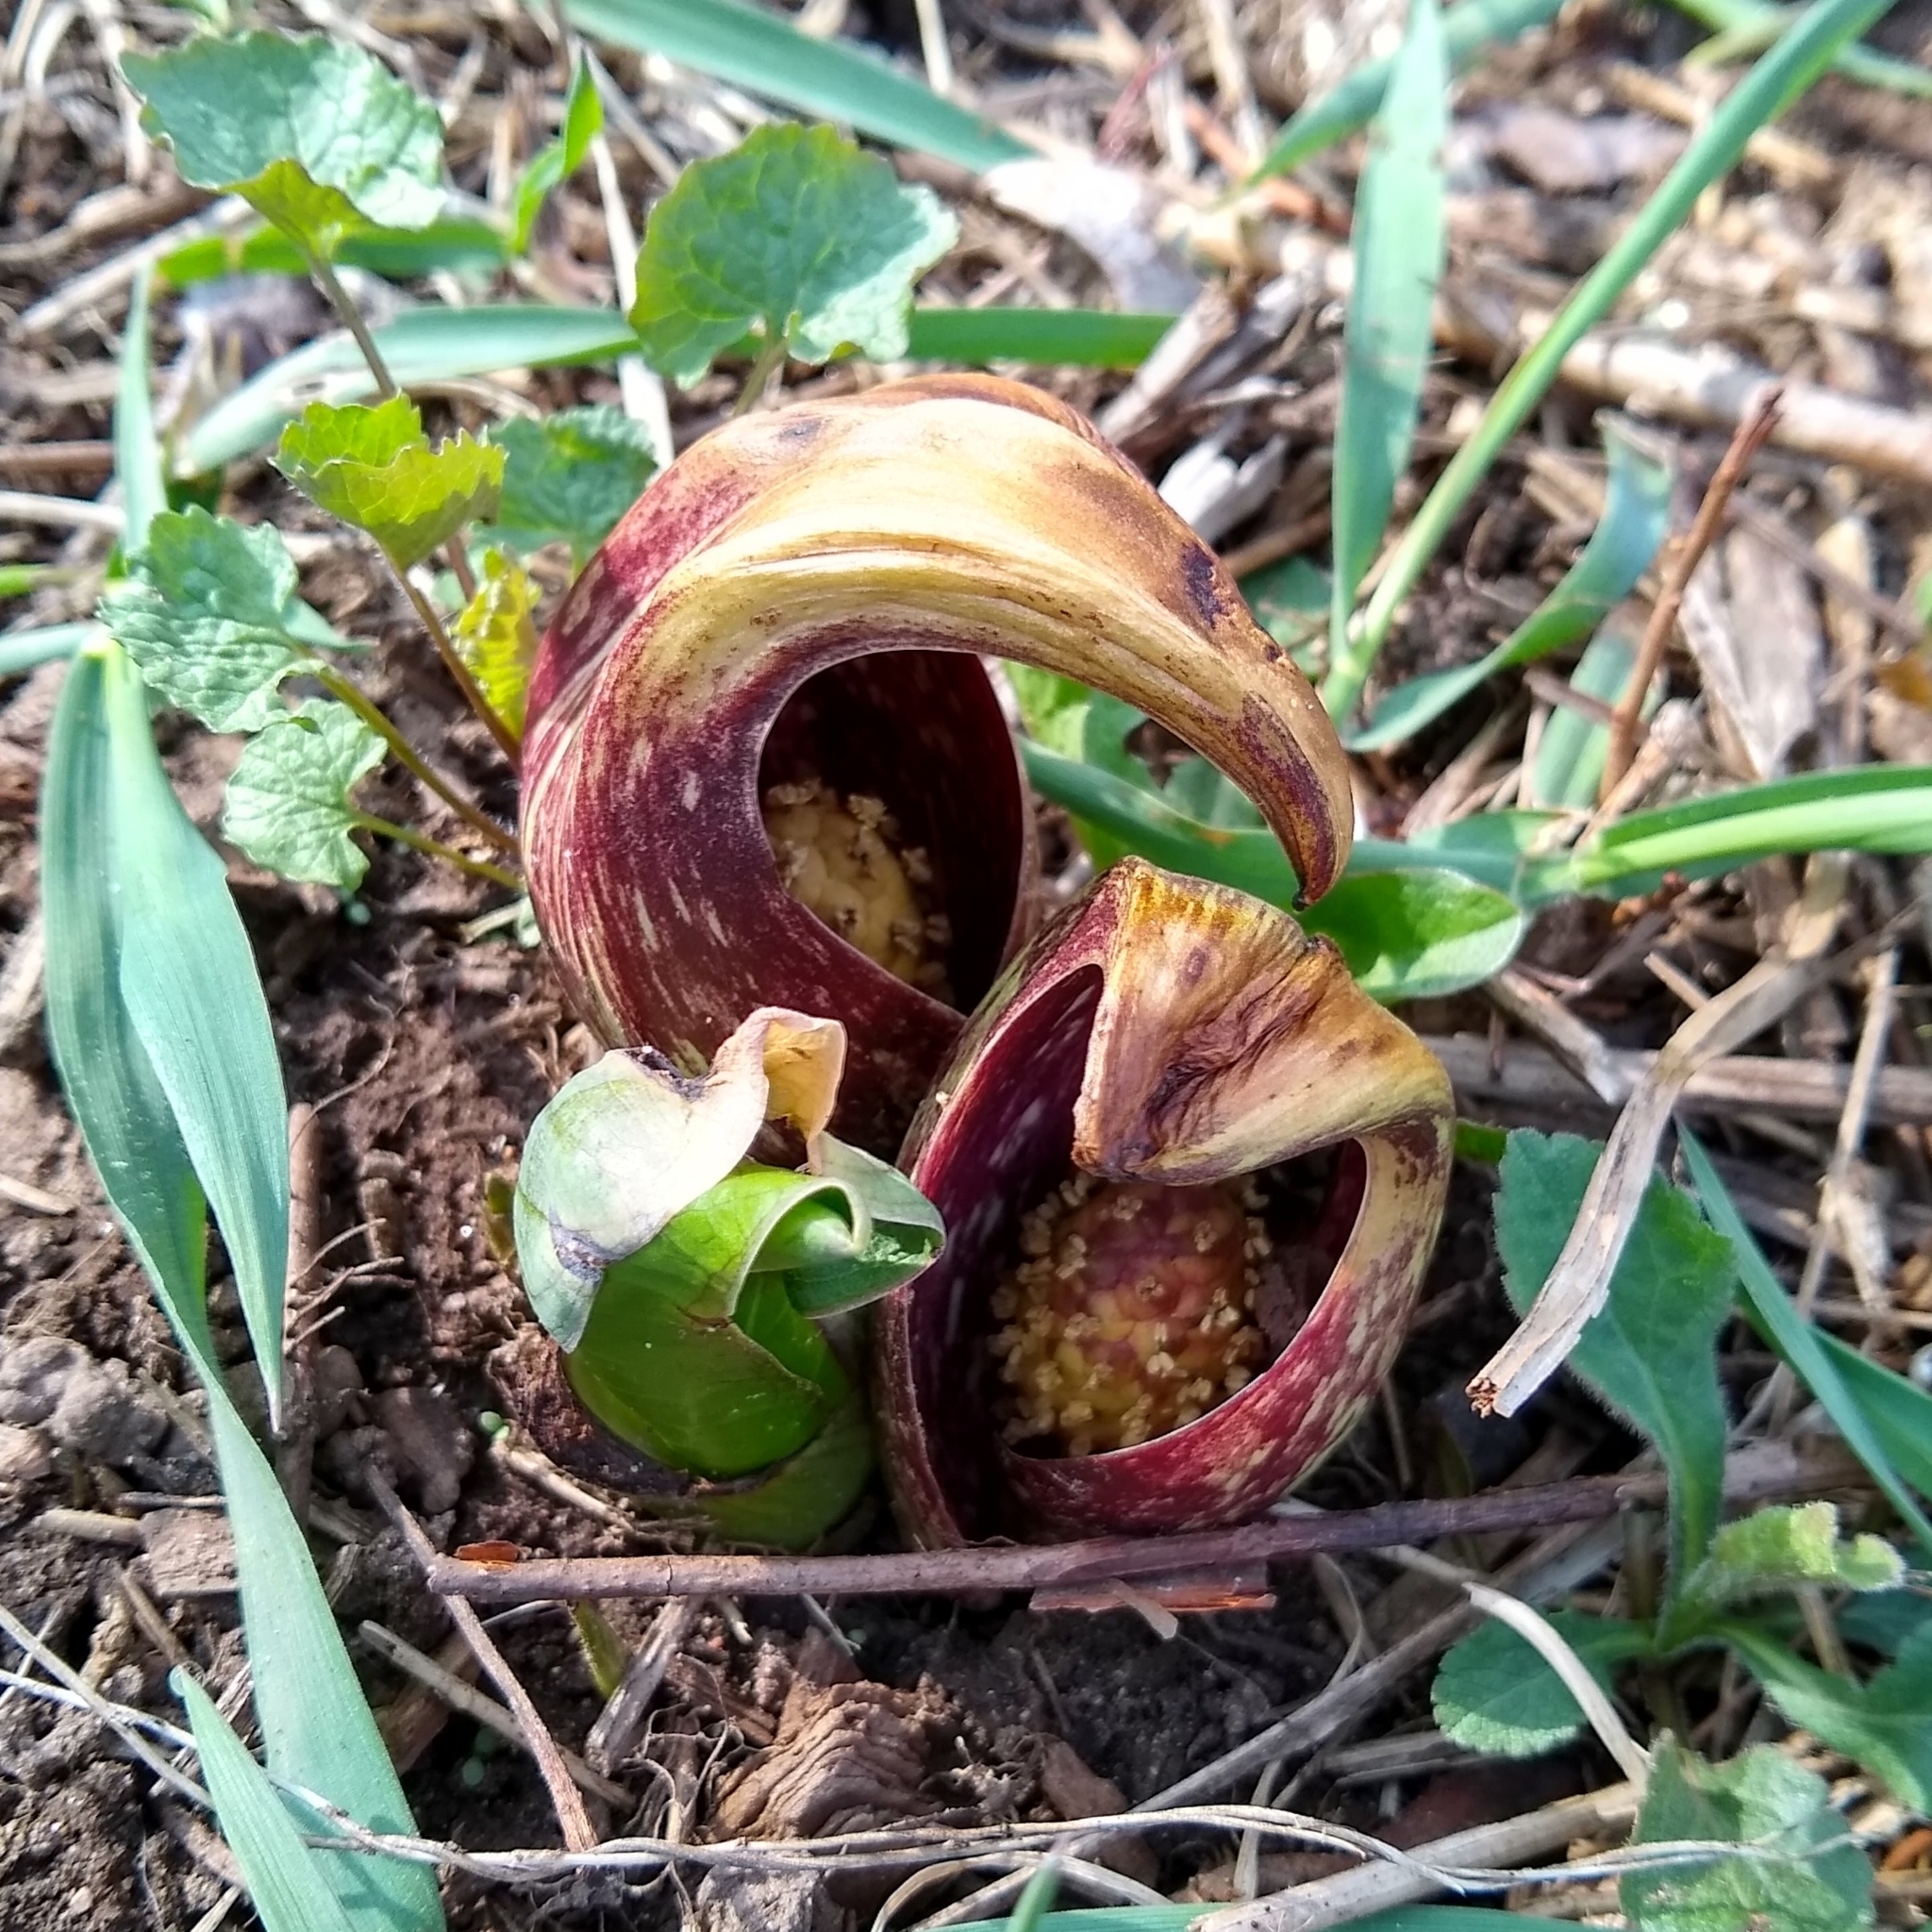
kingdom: Plantae
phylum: Tracheophyta
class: Liliopsida
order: Alismatales
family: Araceae
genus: Symplocarpus
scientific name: Symplocarpus foetidus
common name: Eastern skunk cabbage
